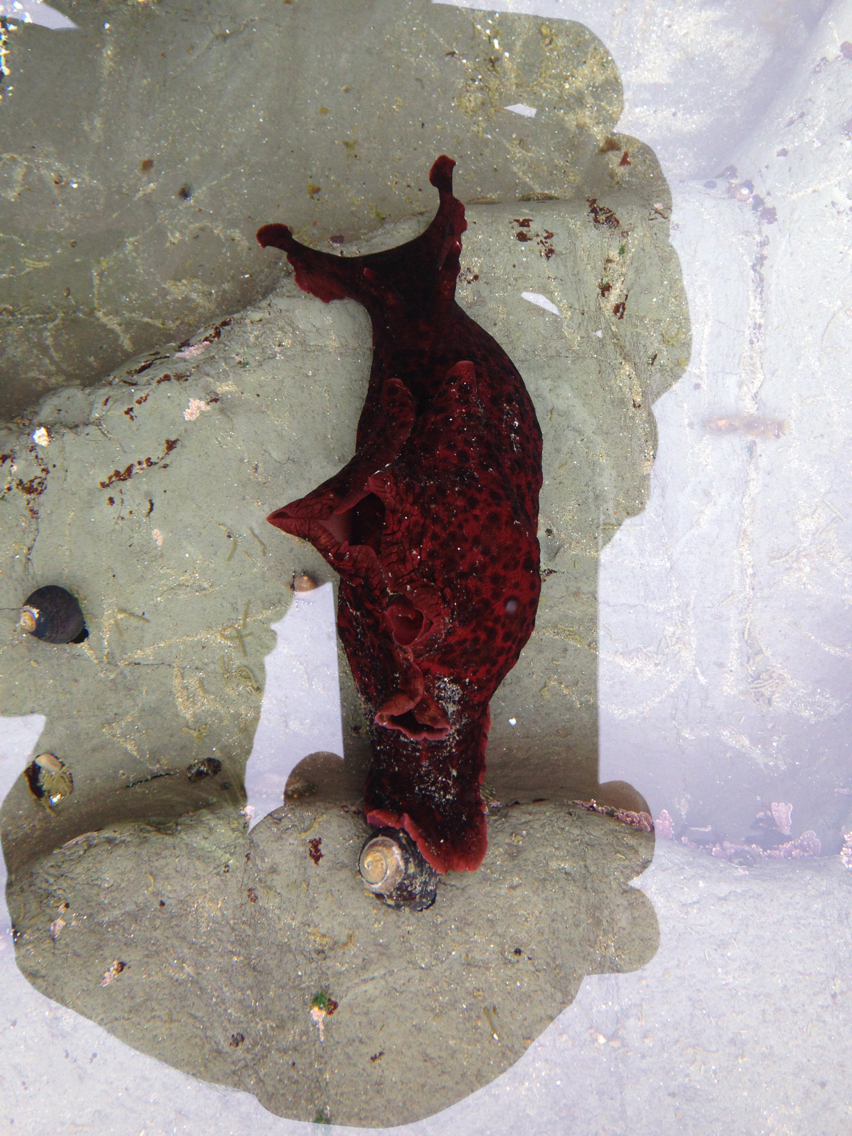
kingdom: Animalia
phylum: Mollusca
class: Gastropoda
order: Aplysiida
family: Aplysiidae
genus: Aplysia
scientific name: Aplysia californica
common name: California seahare
